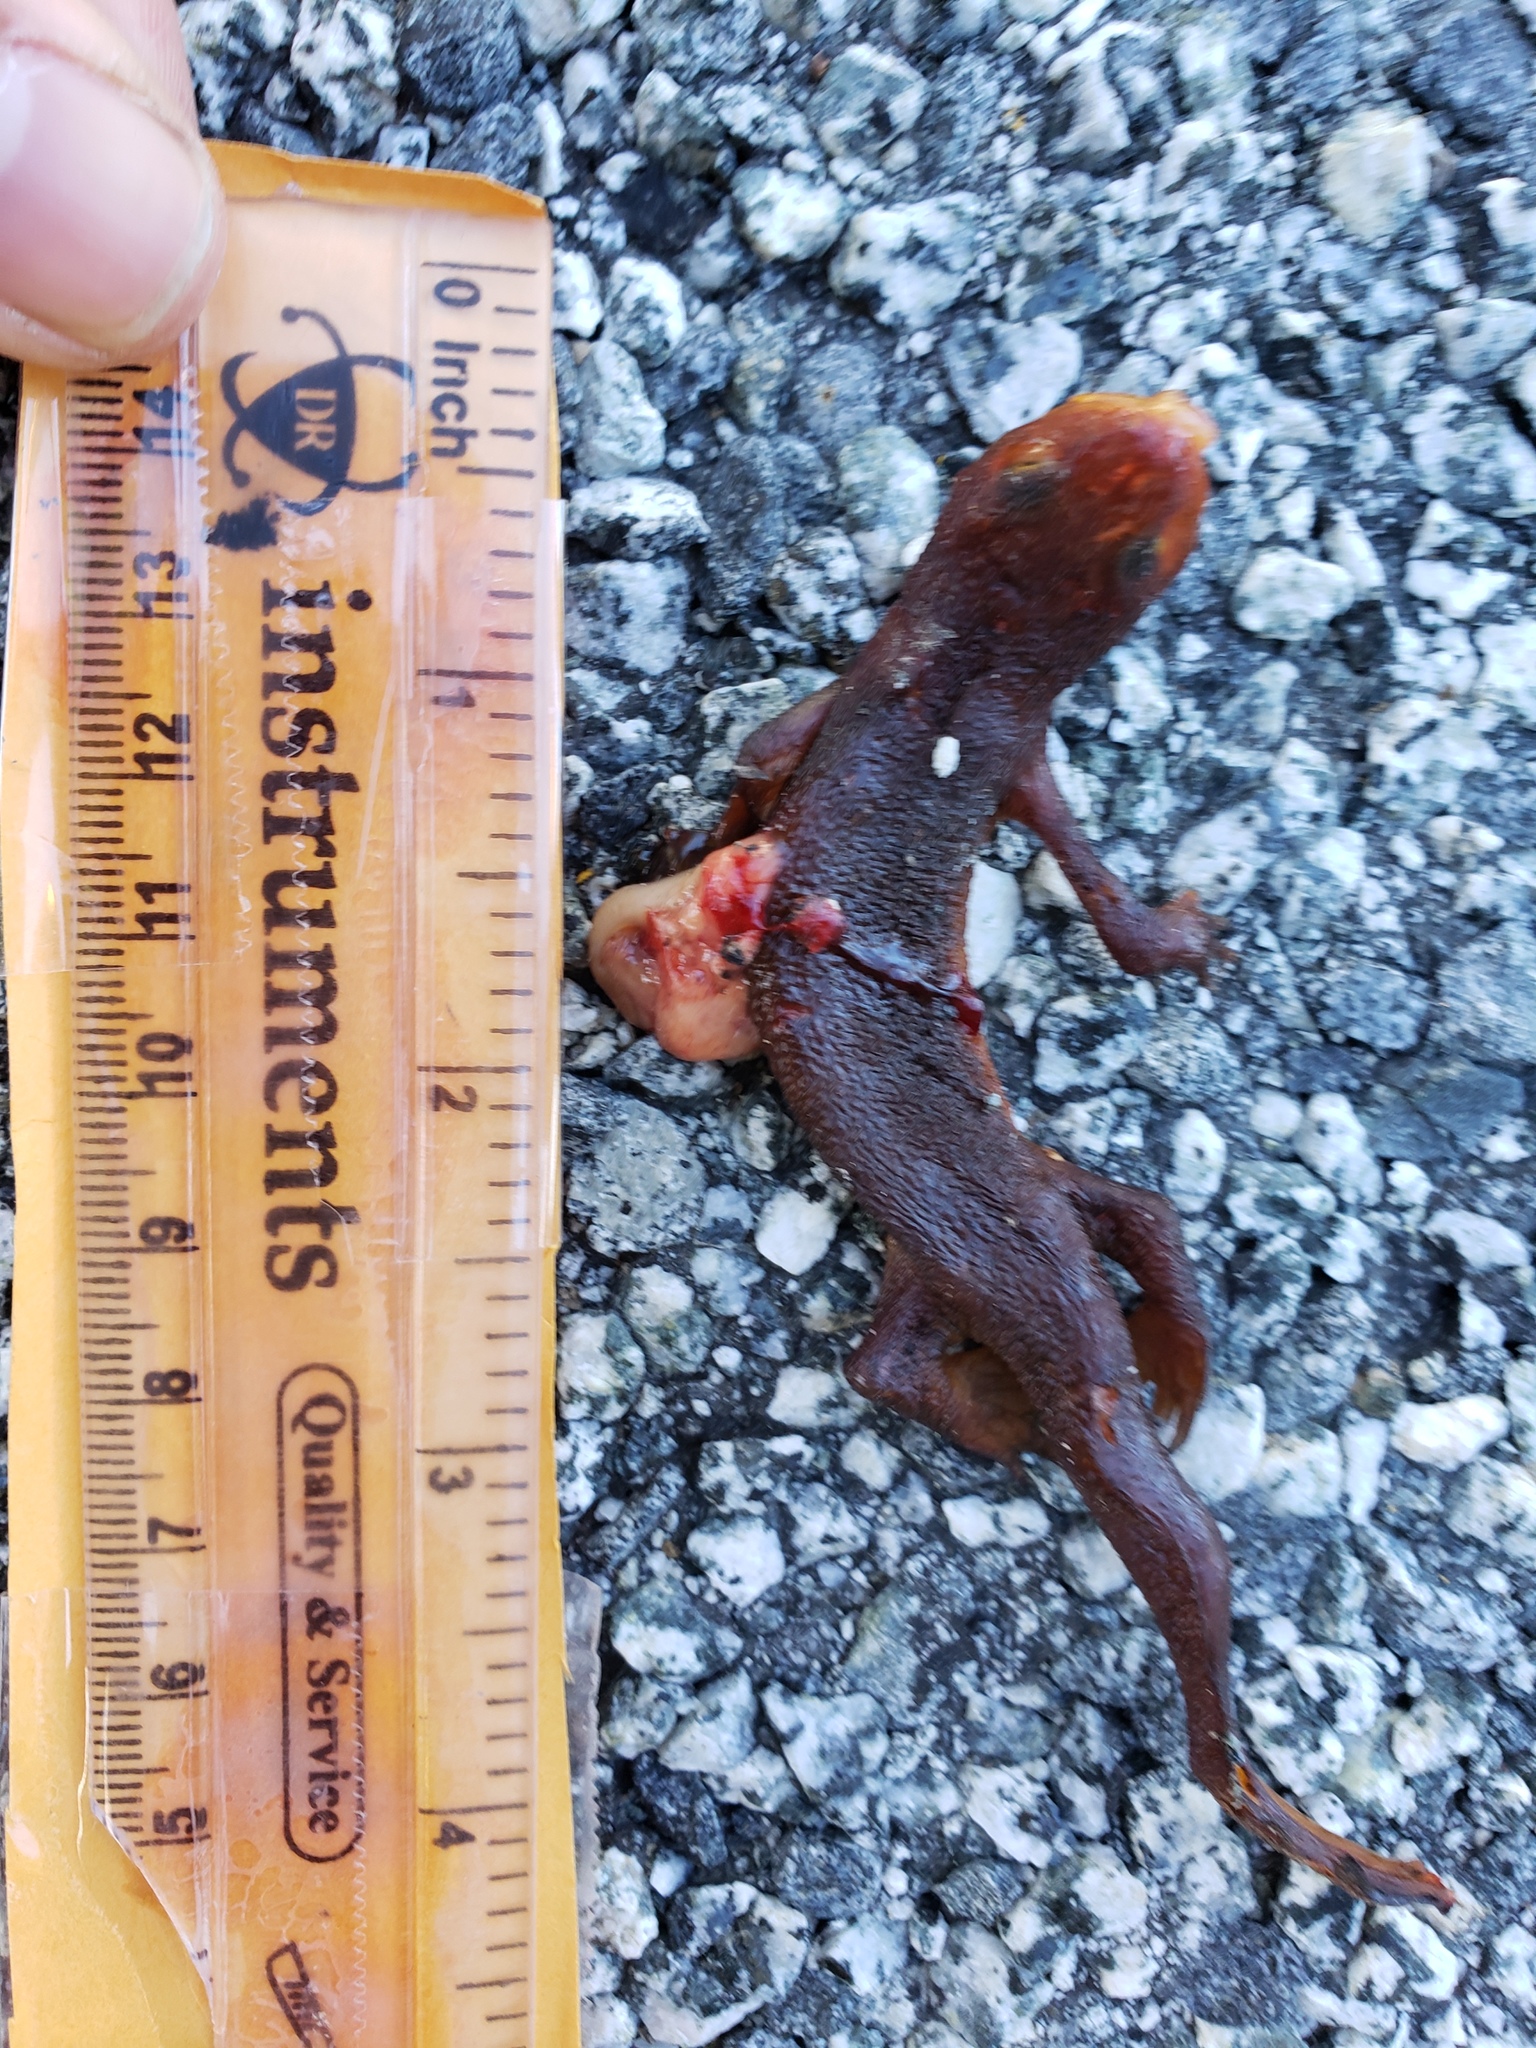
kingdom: Animalia
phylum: Chordata
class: Amphibia
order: Caudata
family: Salamandridae
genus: Taricha
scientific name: Taricha
